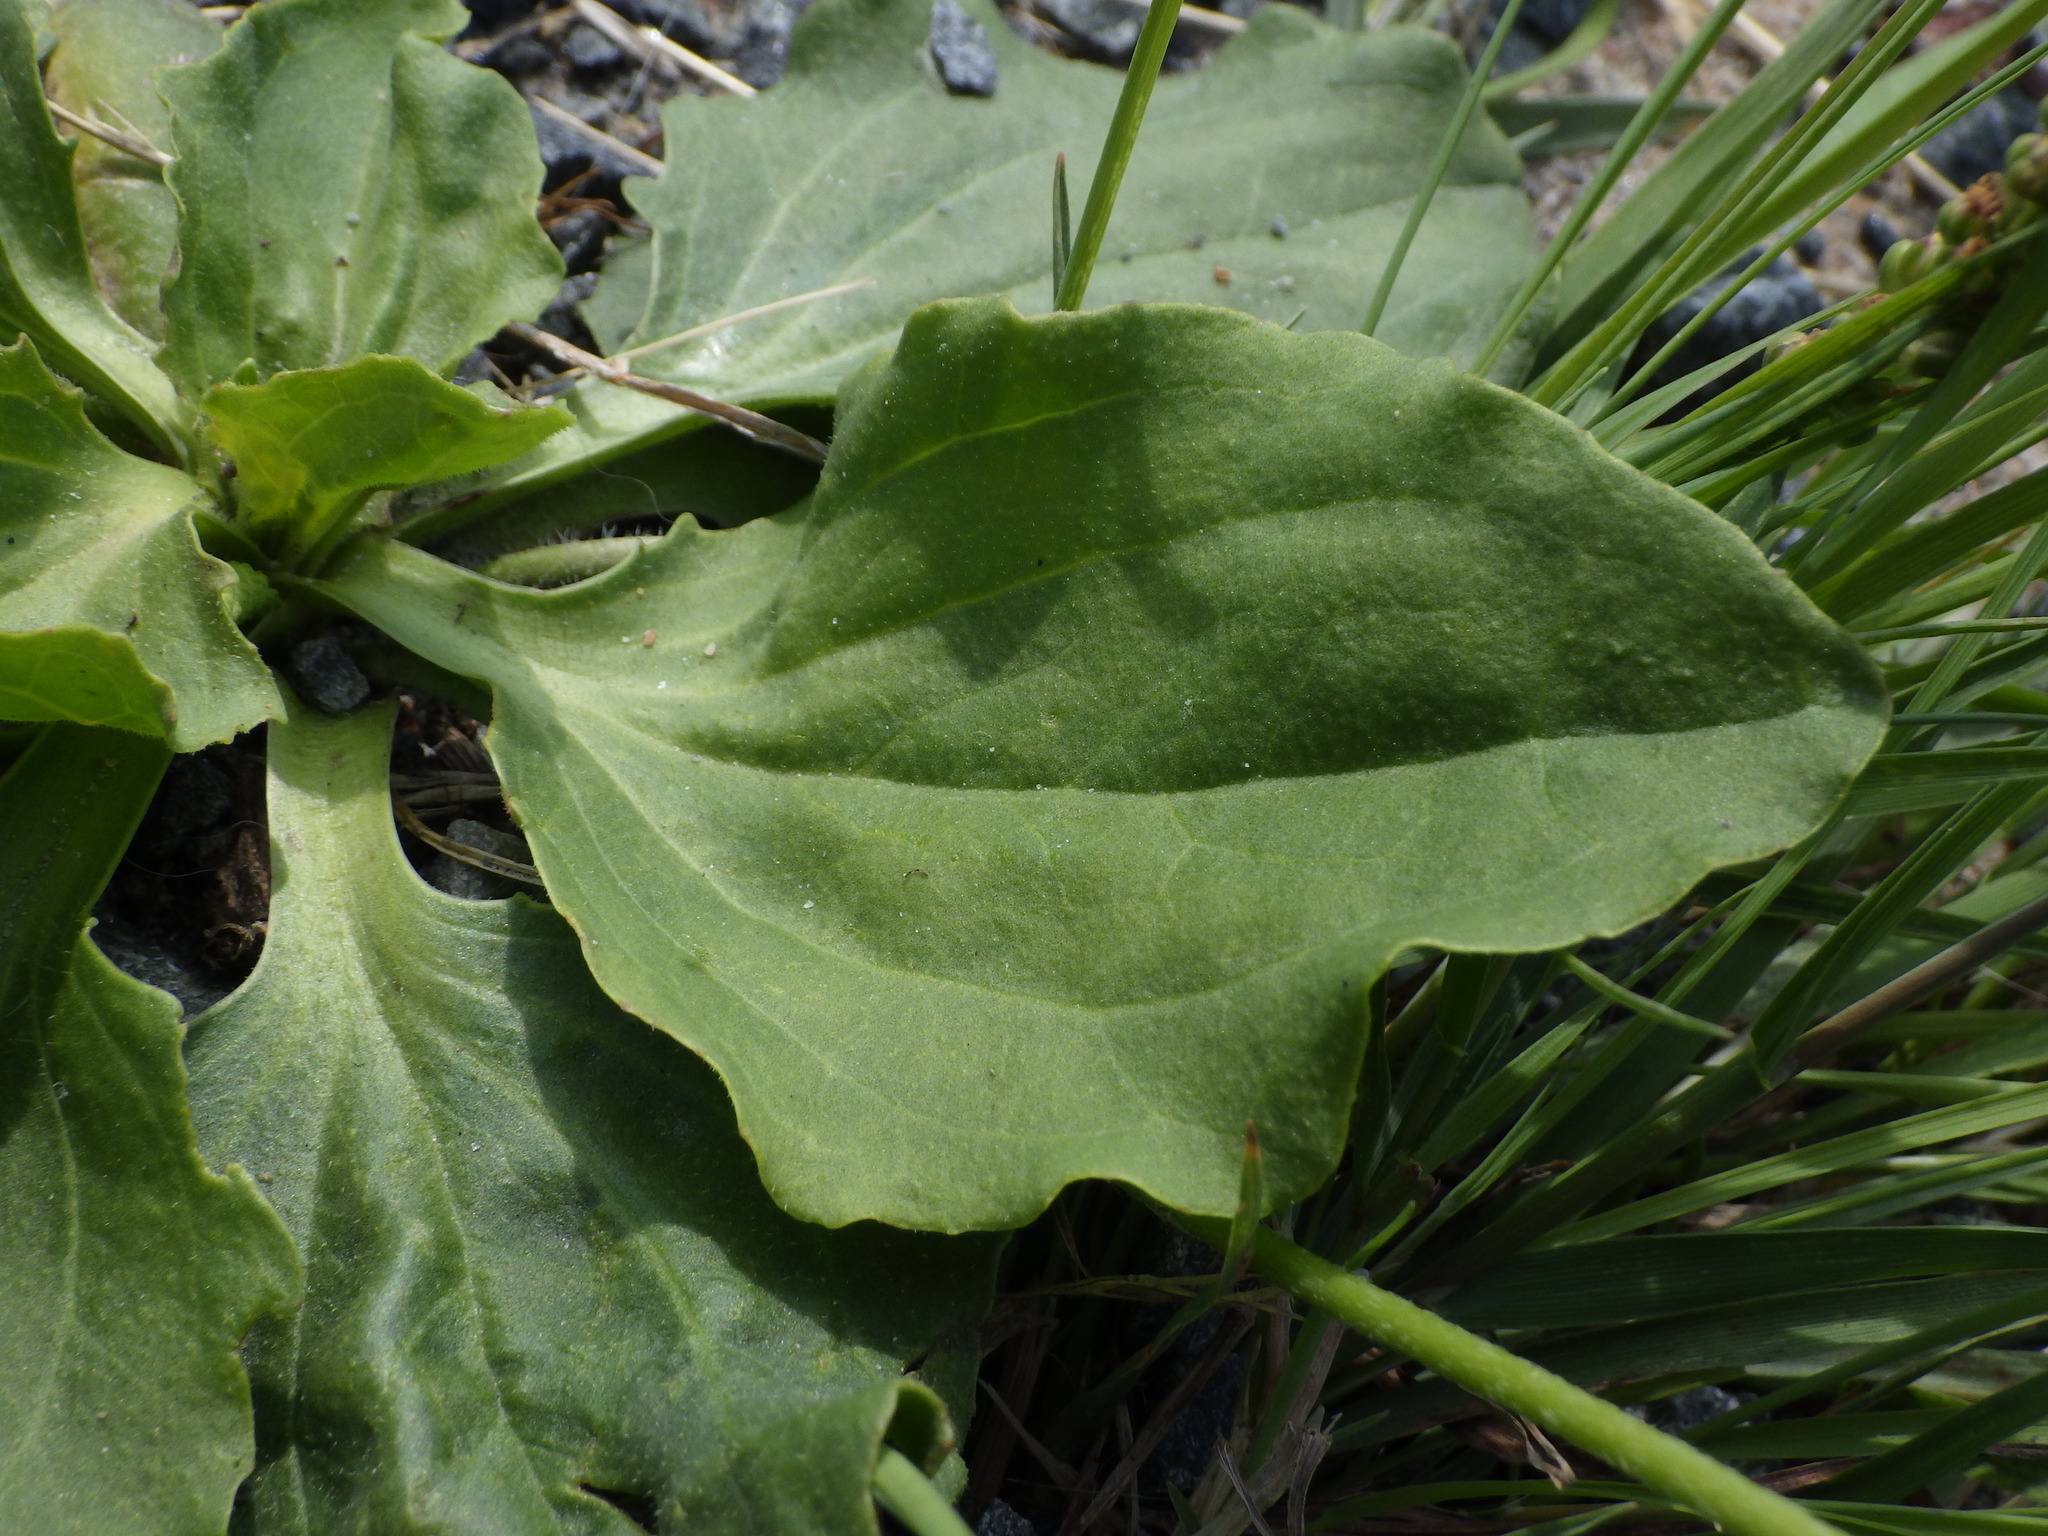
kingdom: Plantae
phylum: Tracheophyta
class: Magnoliopsida
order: Lamiales
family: Plantaginaceae
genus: Plantago
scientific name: Plantago major
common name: Common plantain
